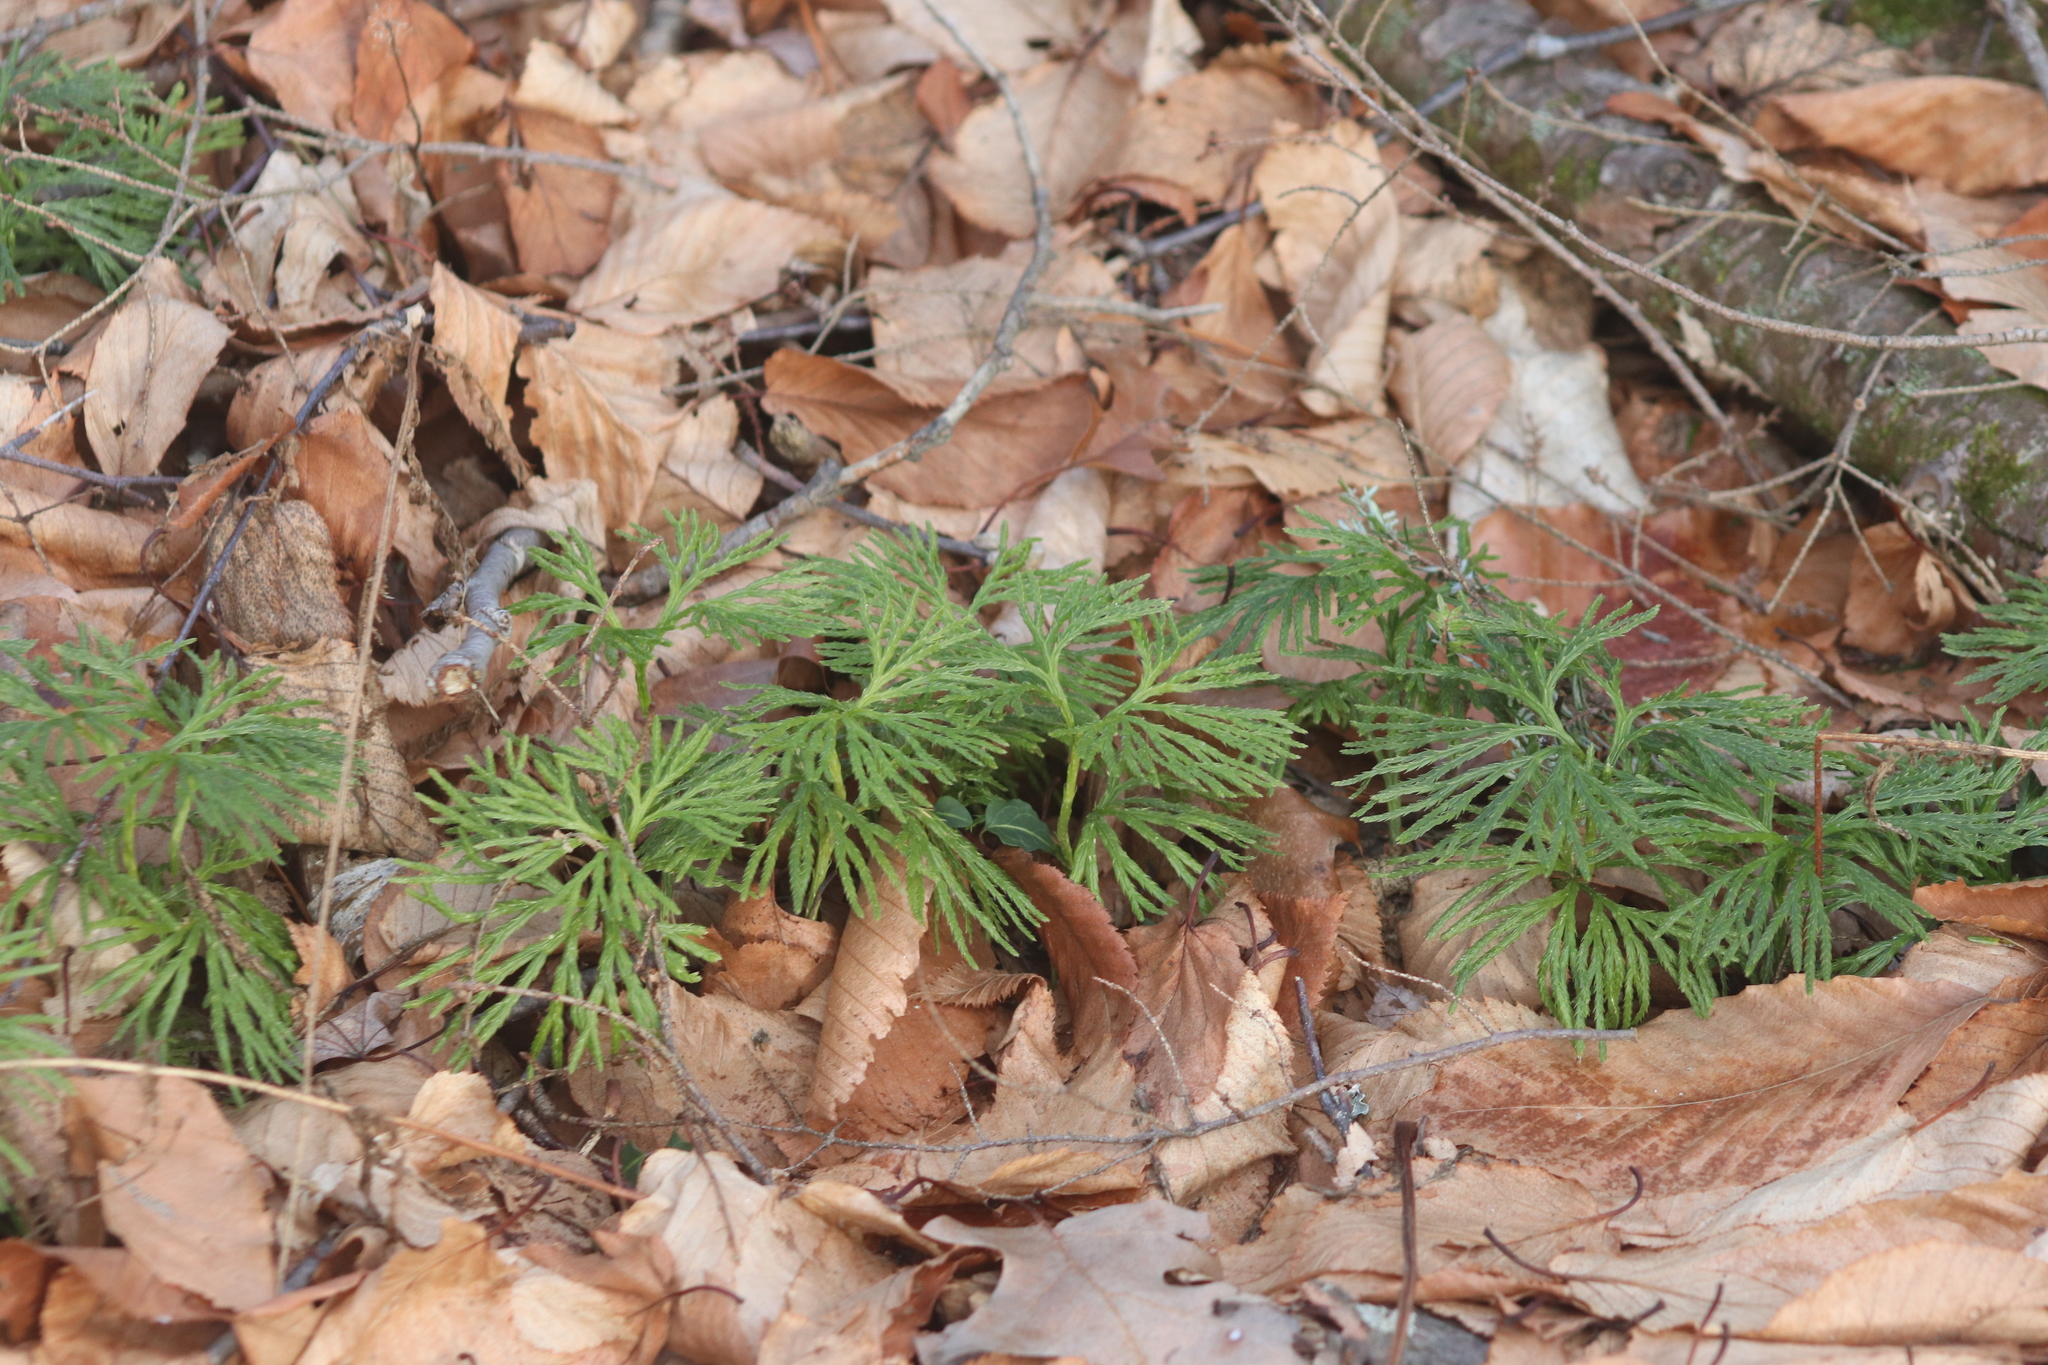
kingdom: Plantae
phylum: Tracheophyta
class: Lycopodiopsida
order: Lycopodiales
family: Lycopodiaceae
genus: Diphasiastrum
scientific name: Diphasiastrum digitatum
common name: Southern running-pine
